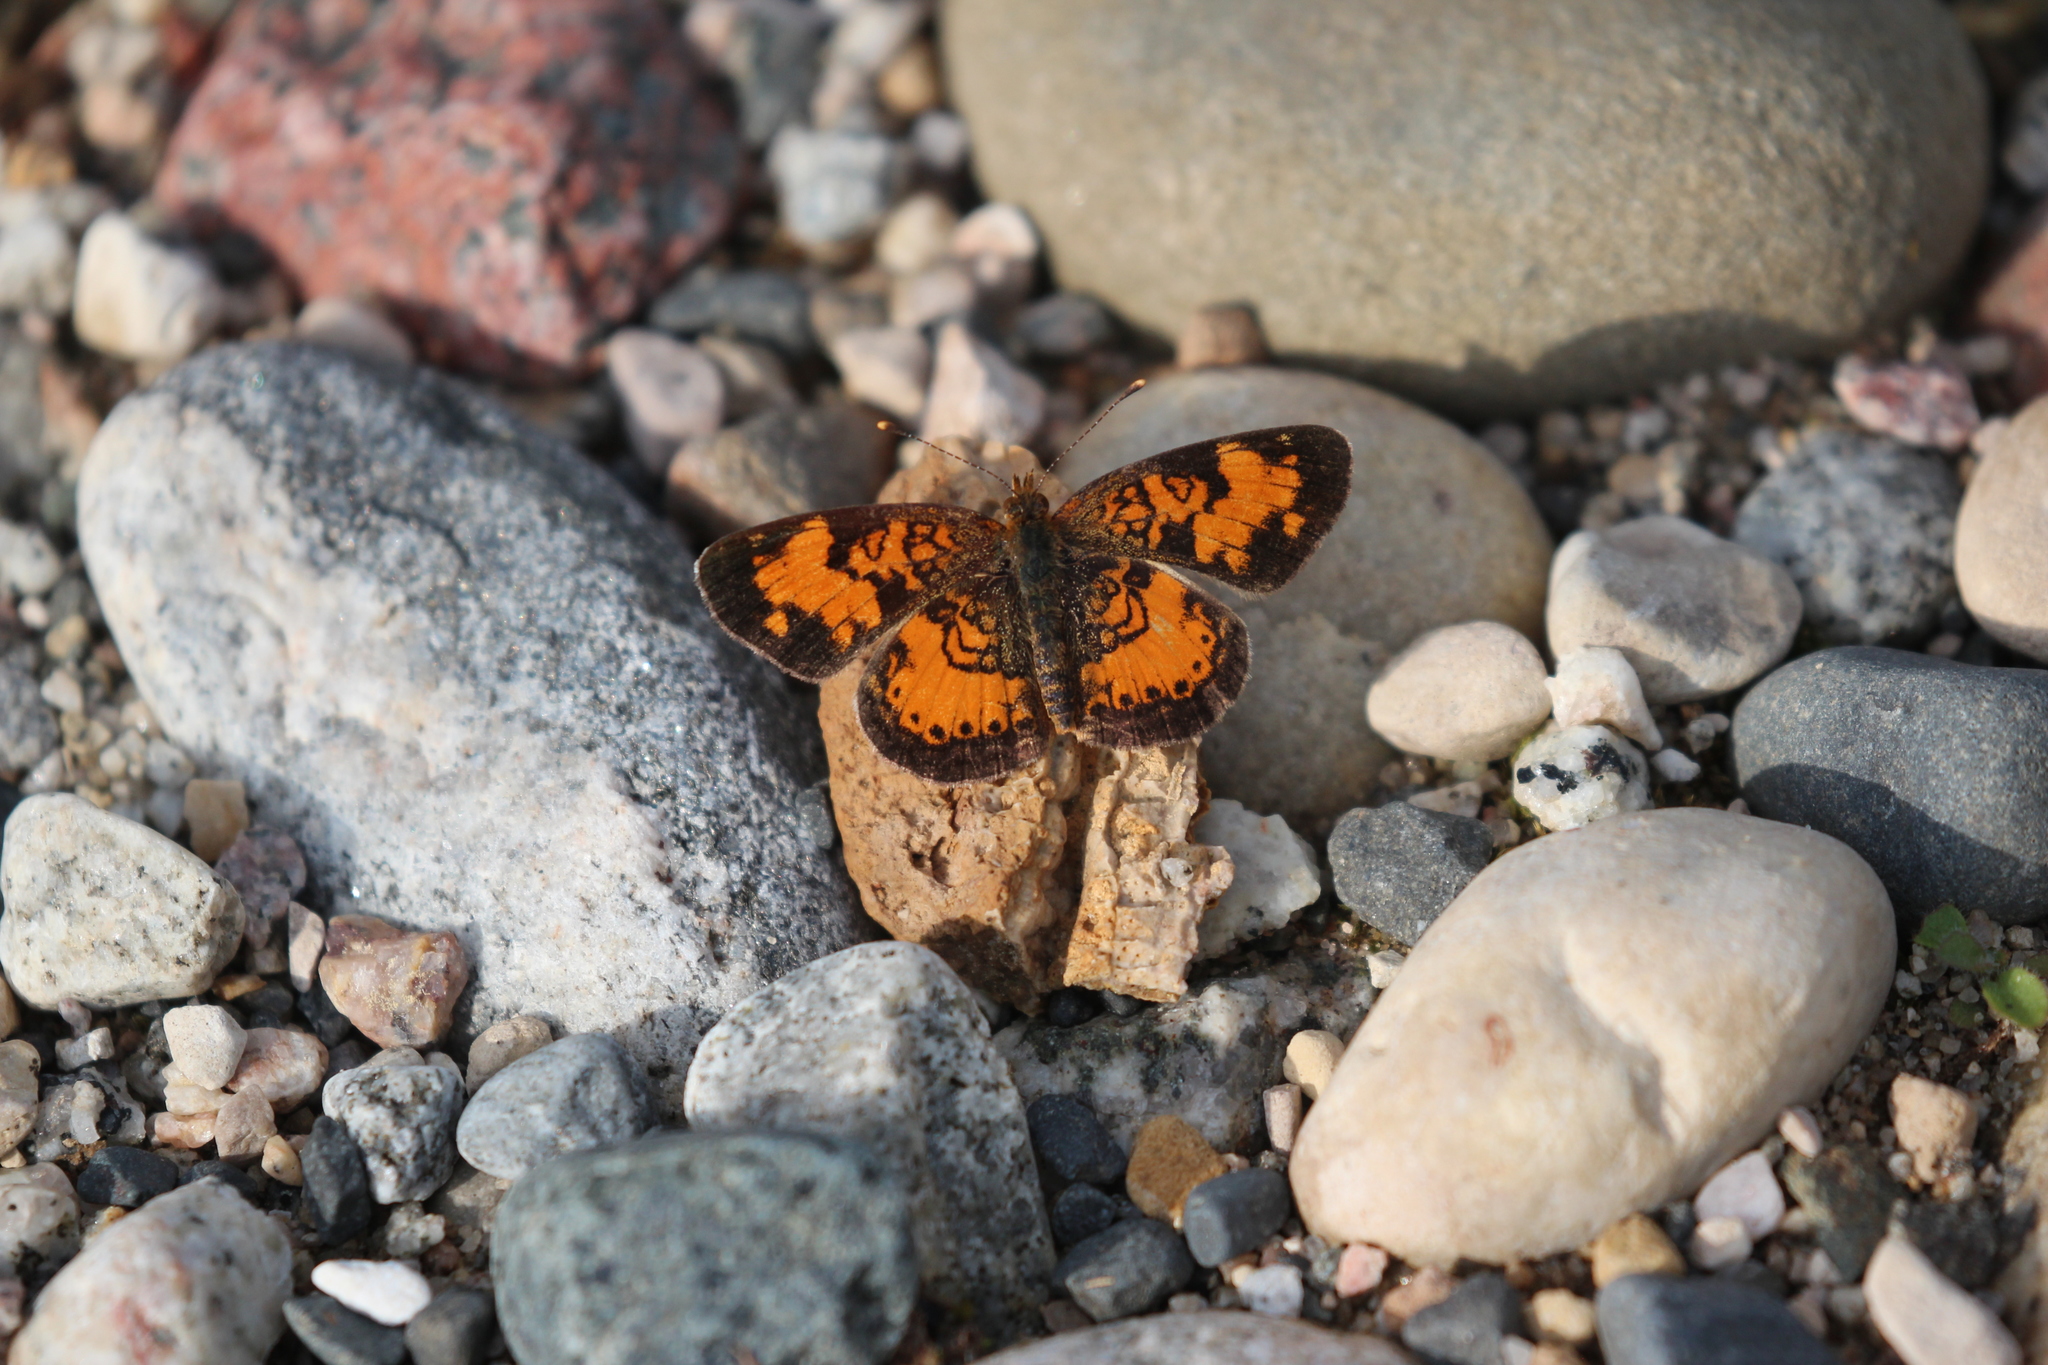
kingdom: Animalia
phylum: Arthropoda
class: Insecta
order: Lepidoptera
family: Nymphalidae
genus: Phyciodes
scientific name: Phyciodes tharos
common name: Pearl crescent
